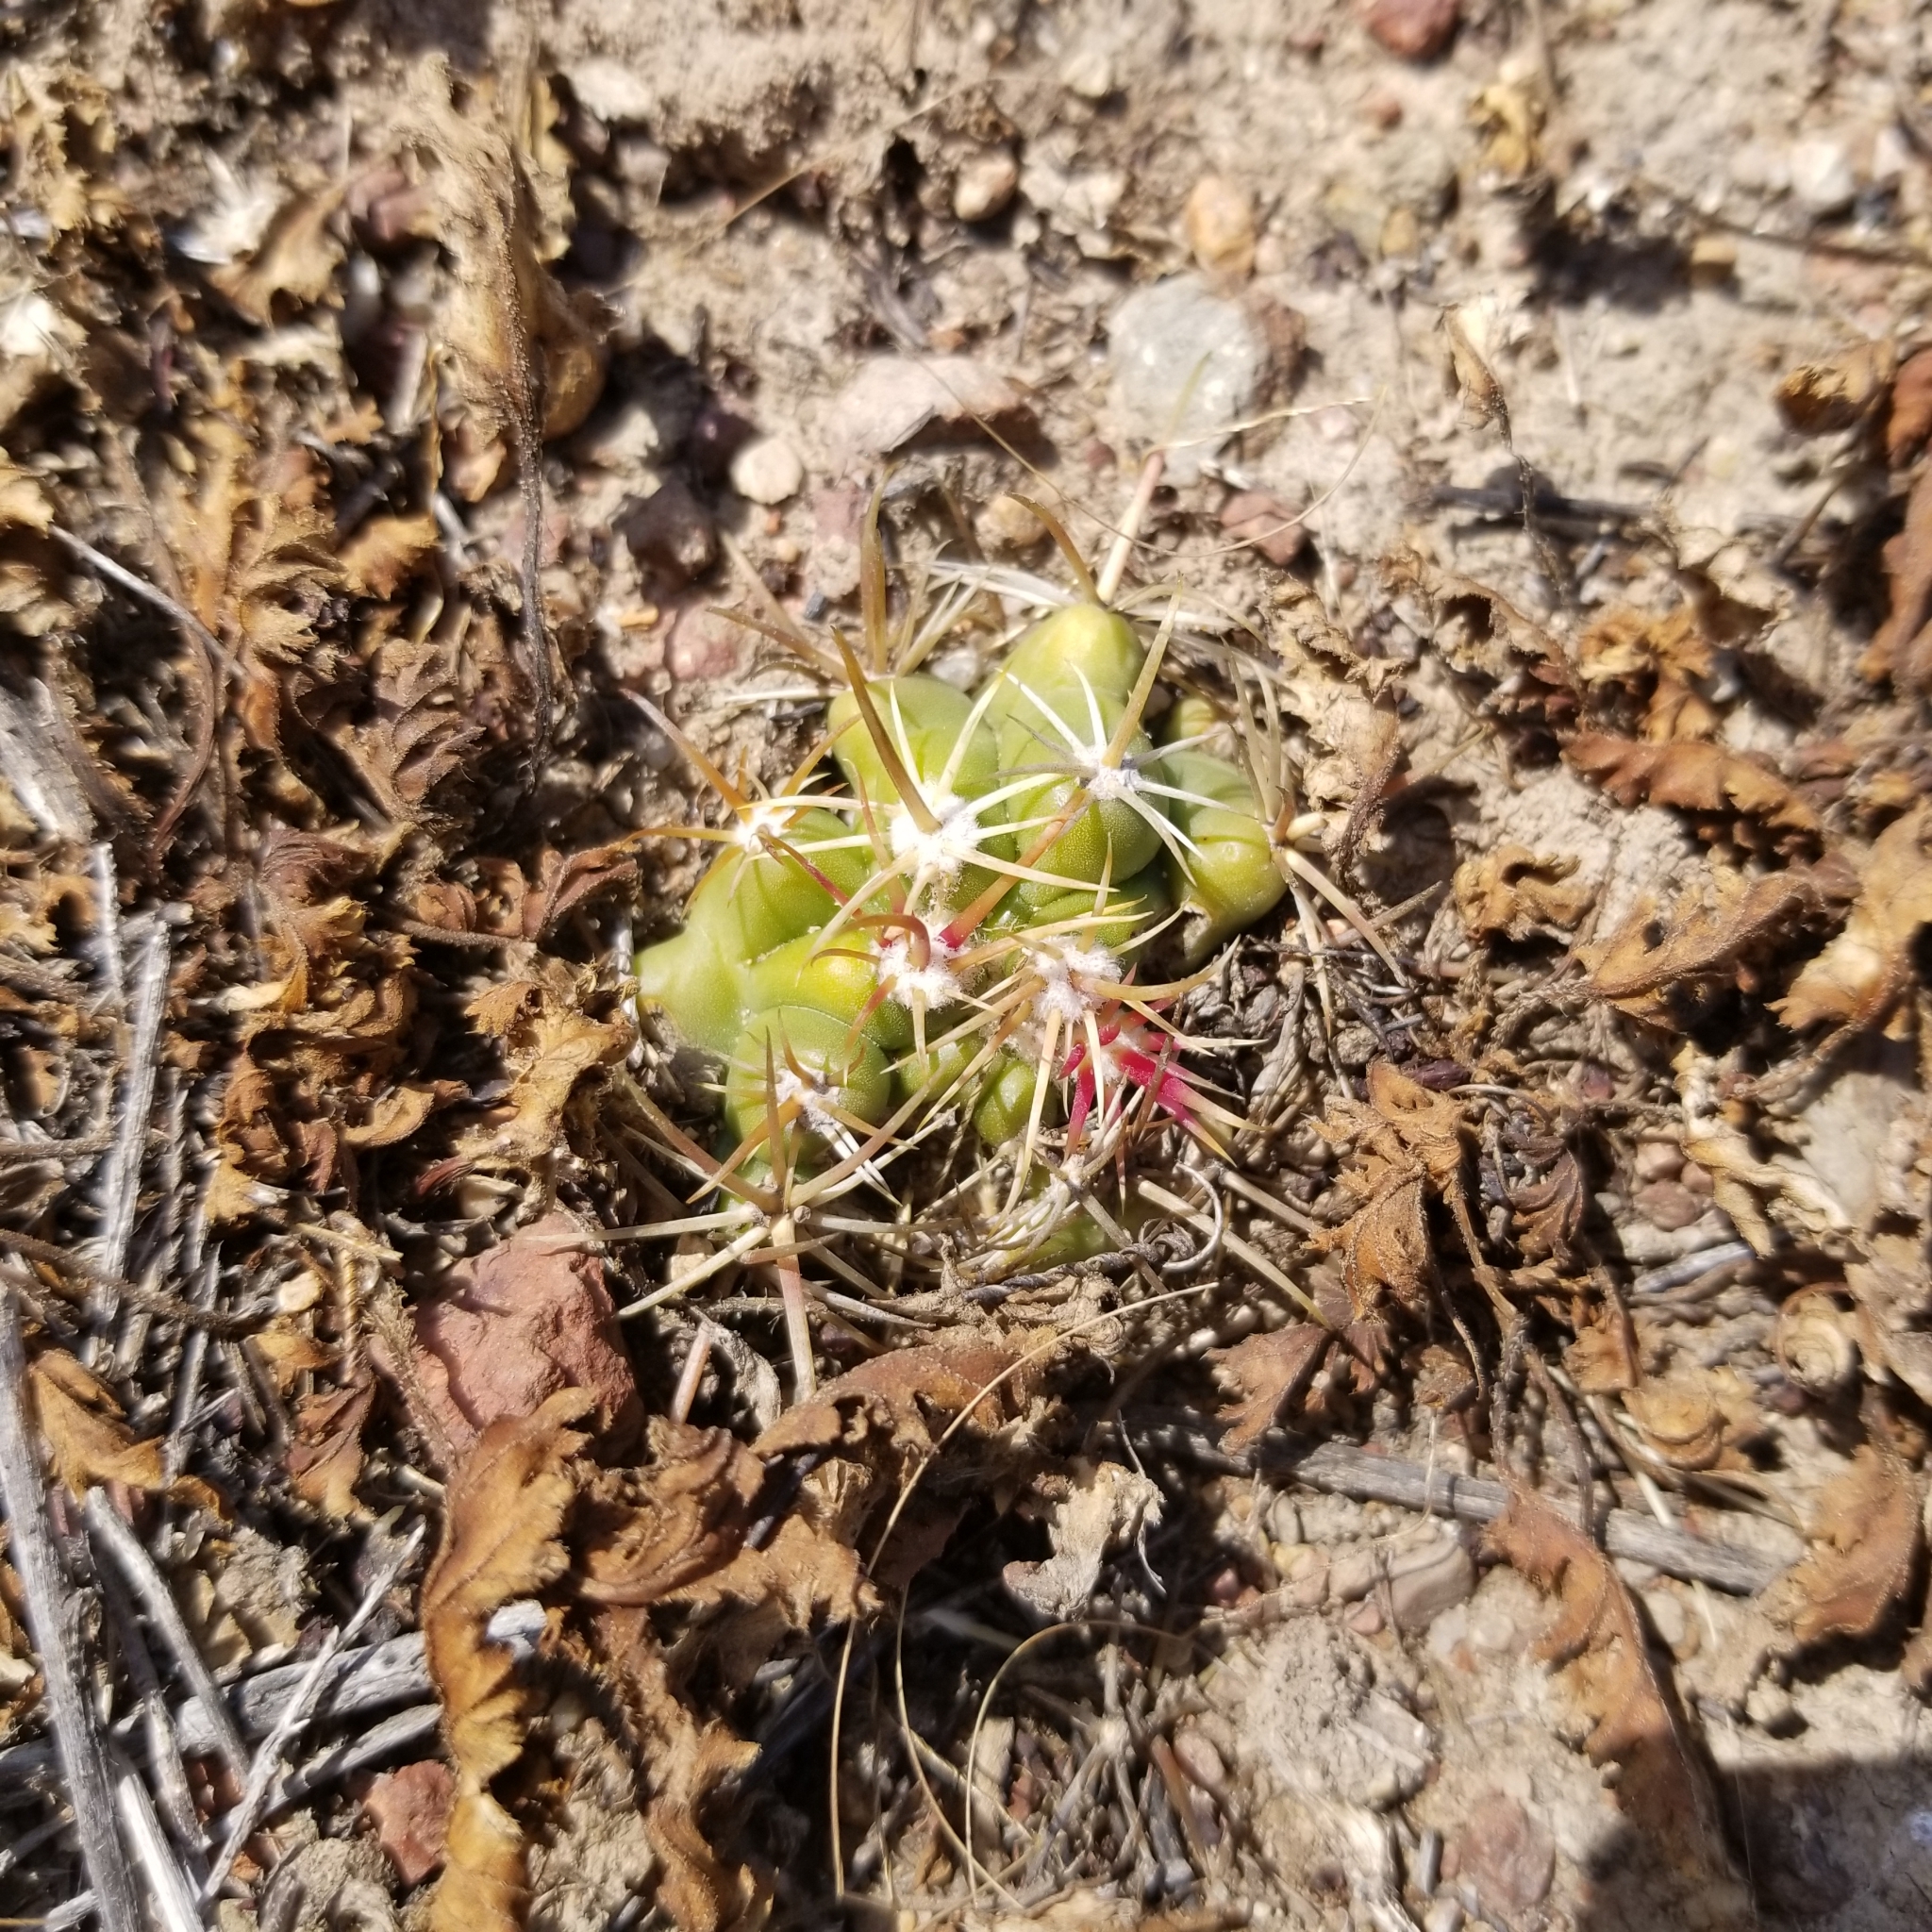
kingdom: Plantae
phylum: Tracheophyta
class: Magnoliopsida
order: Caryophyllales
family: Cactaceae
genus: Ferocactus
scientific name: Ferocactus viridescens
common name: San diego barrel cactus
